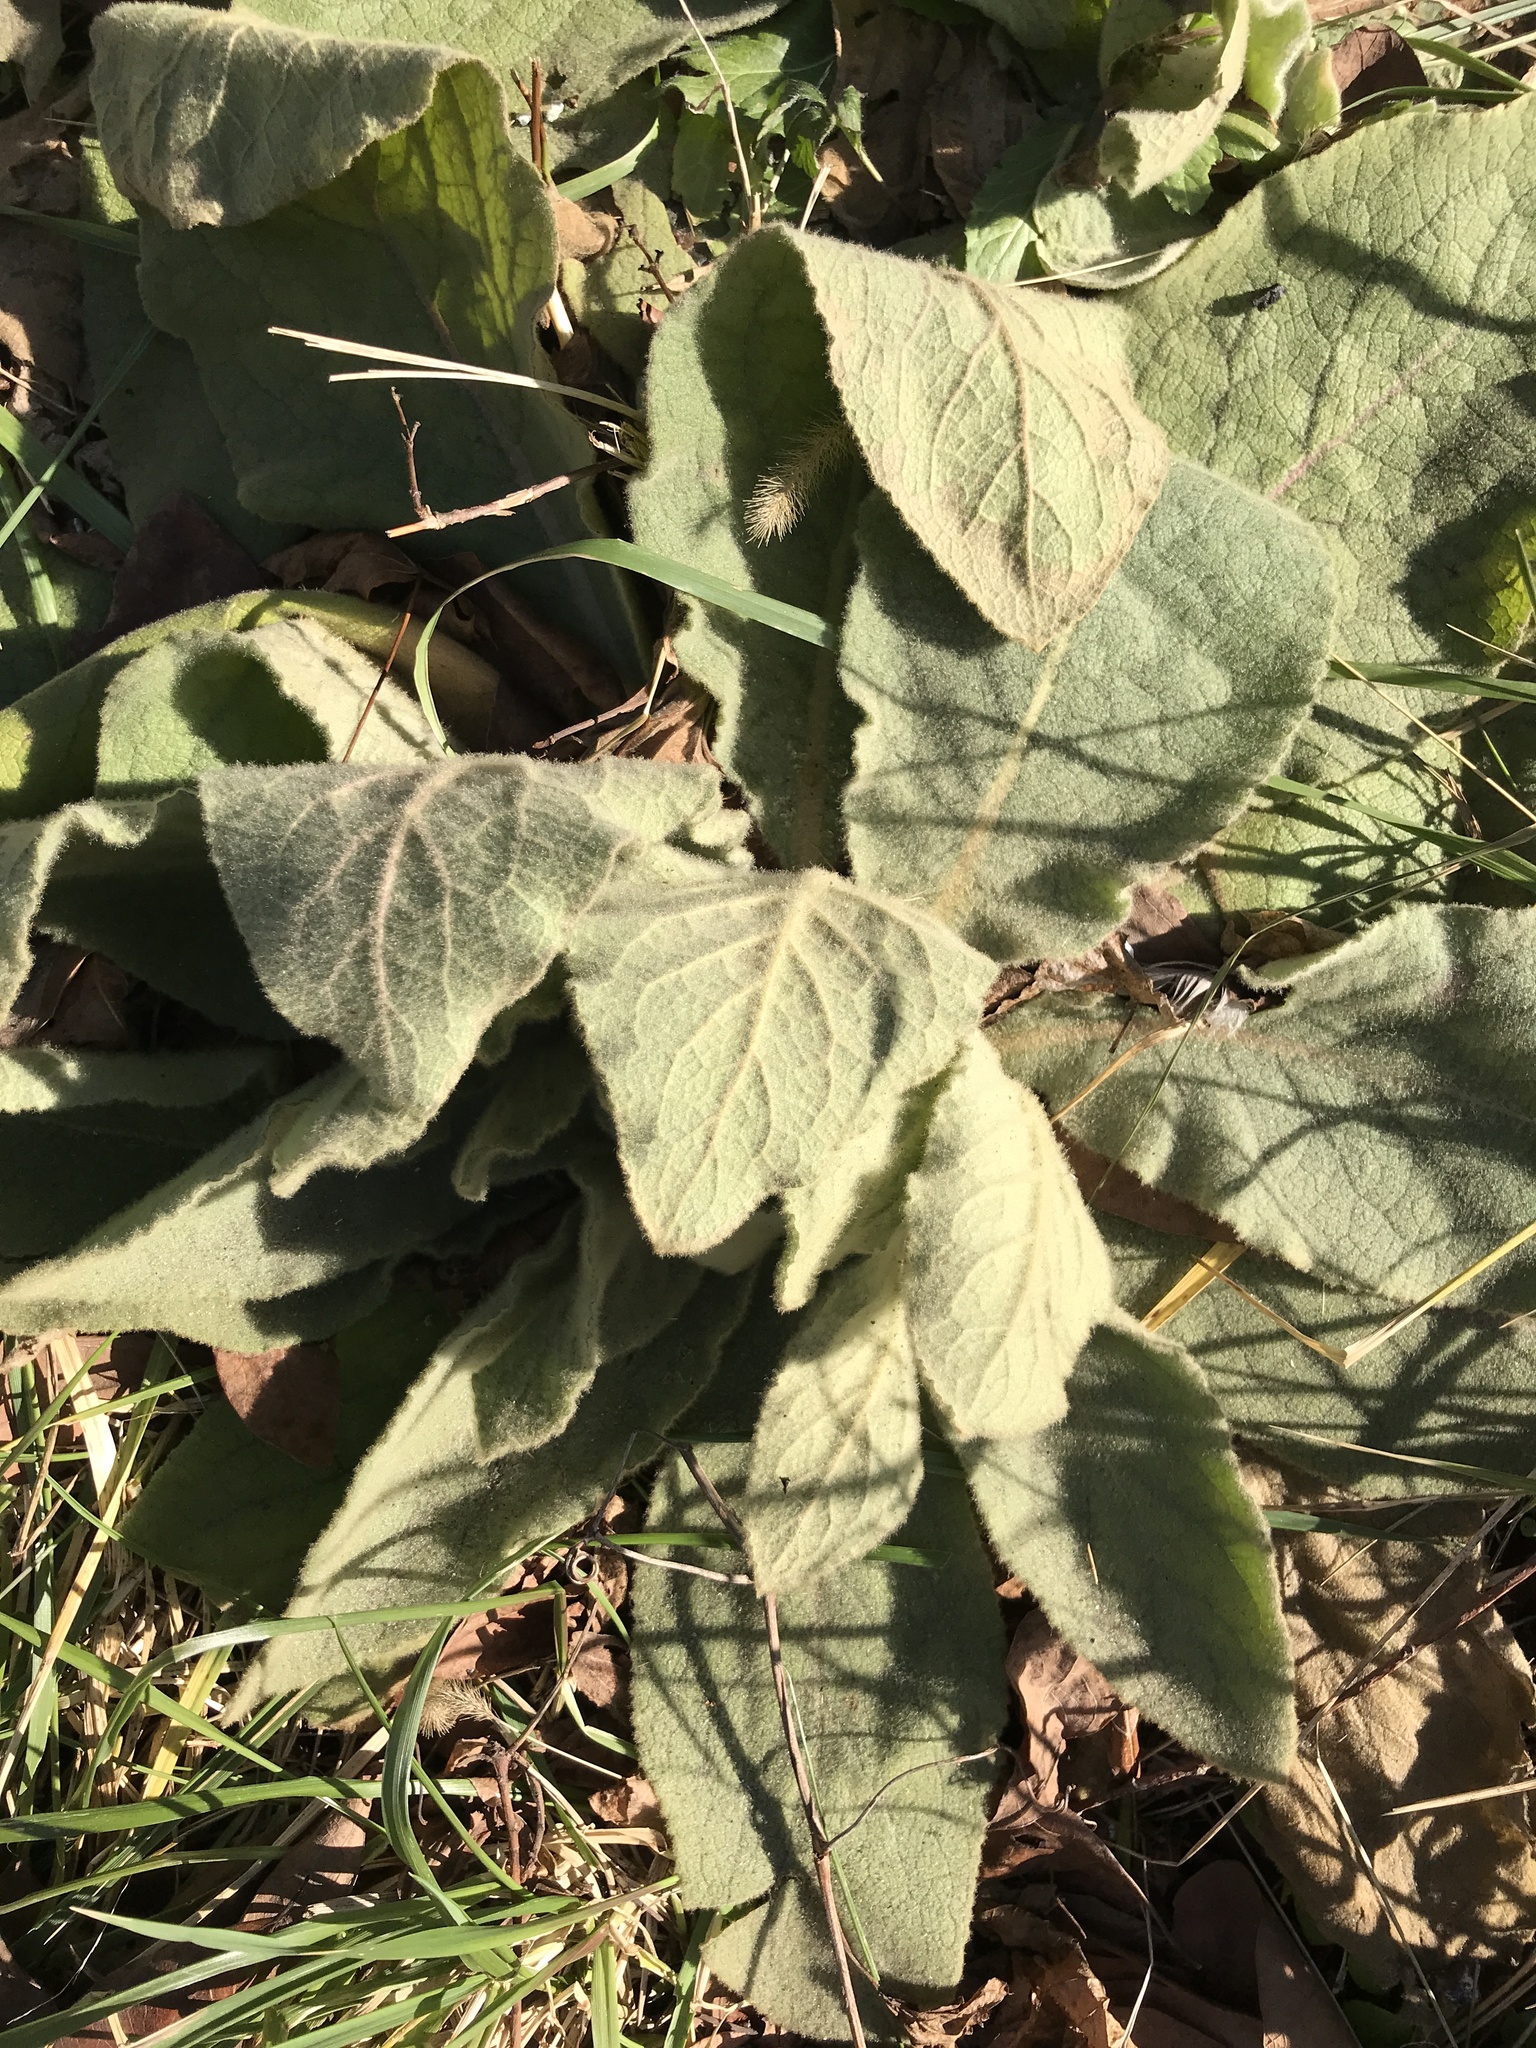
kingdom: Plantae
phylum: Tracheophyta
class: Magnoliopsida
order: Lamiales
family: Scrophulariaceae
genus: Verbascum
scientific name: Verbascum thapsus
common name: Common mullein
